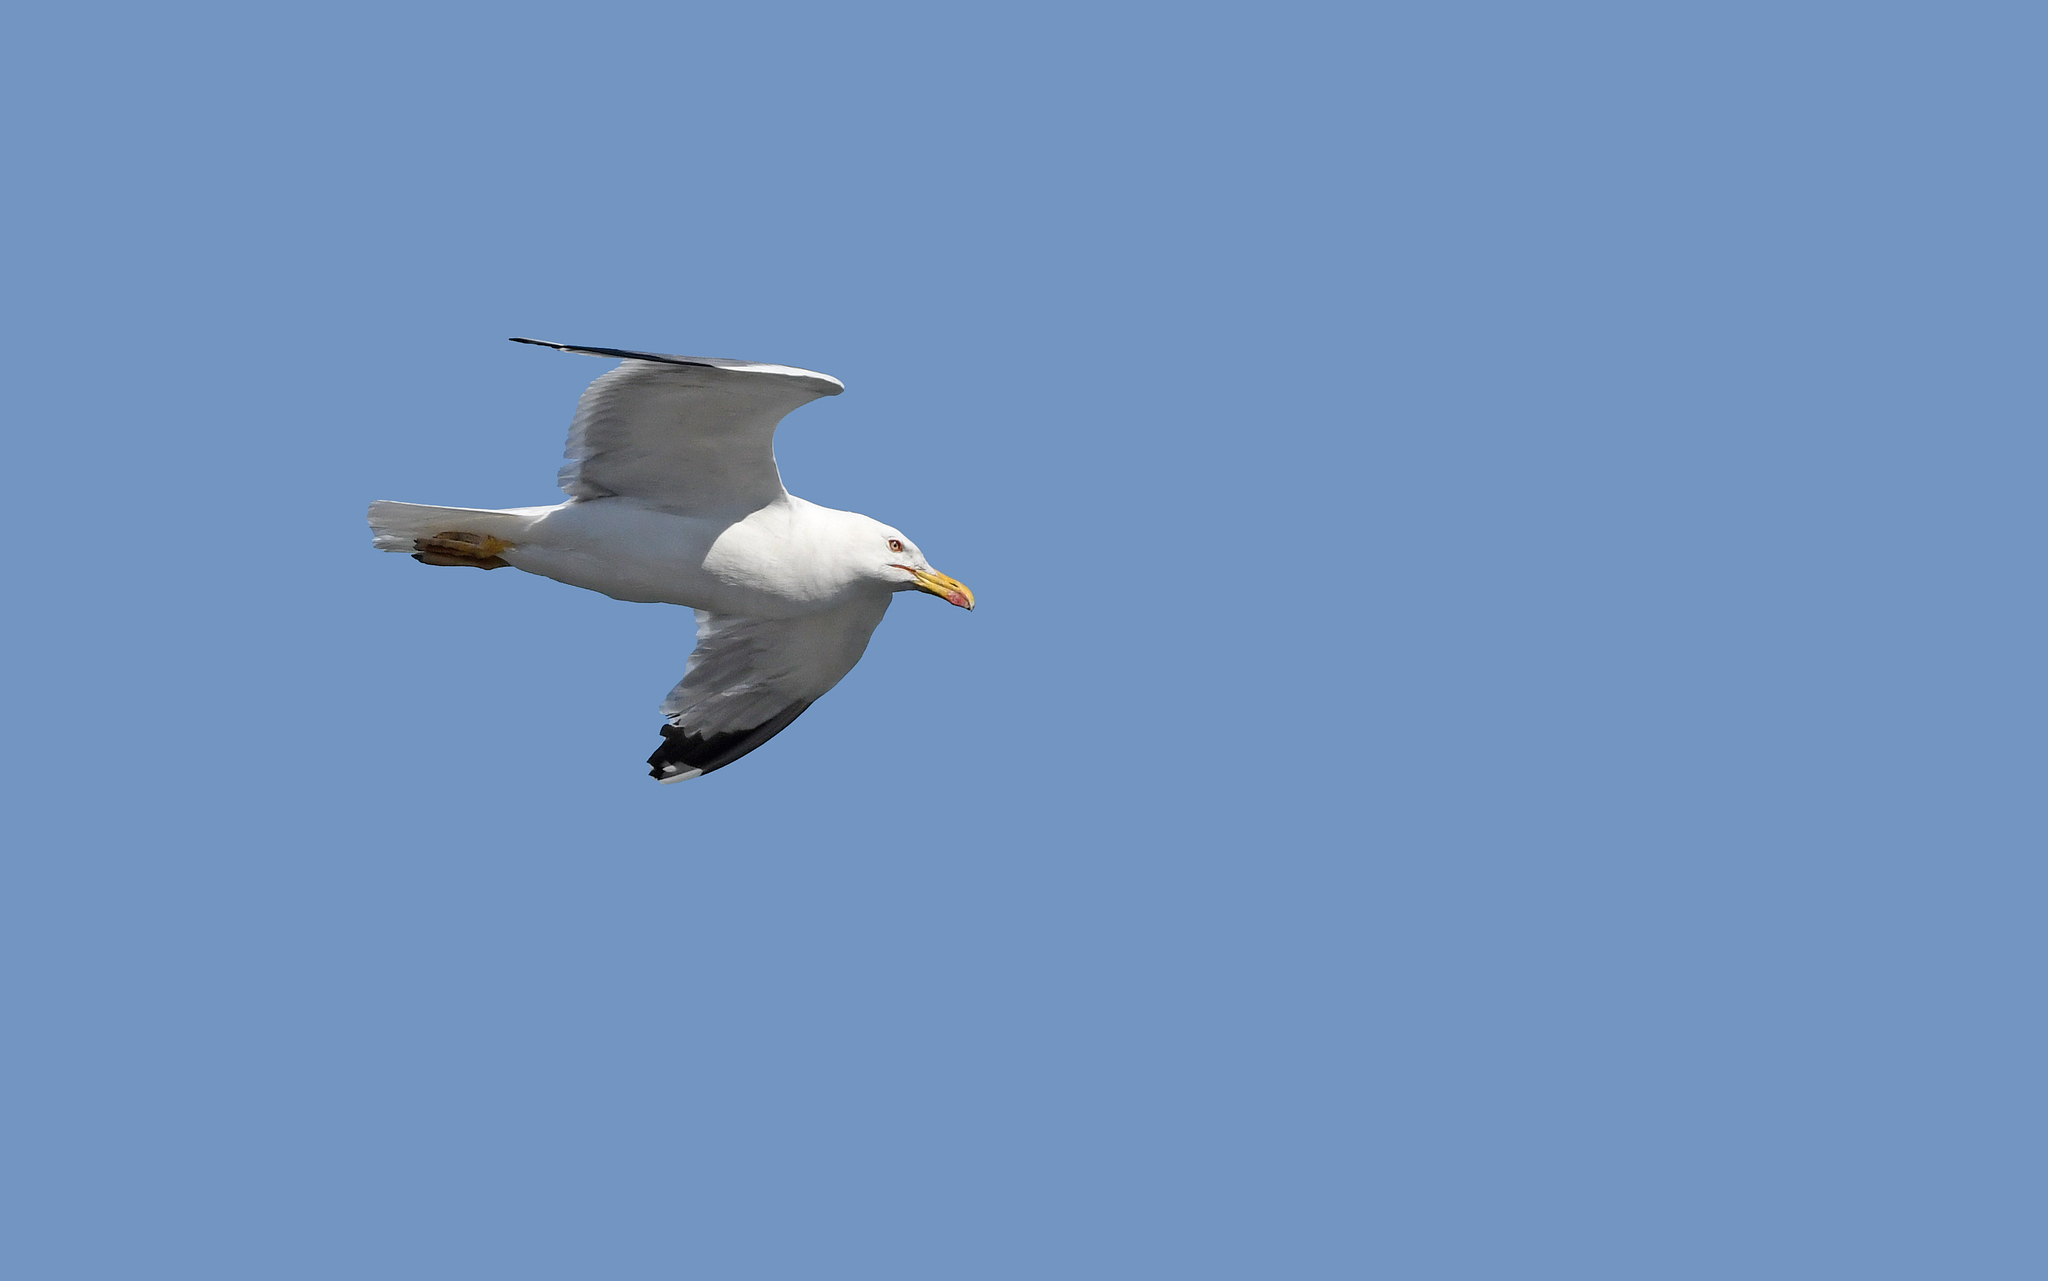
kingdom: Animalia
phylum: Chordata
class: Aves
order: Charadriiformes
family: Laridae
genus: Larus
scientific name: Larus michahellis
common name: Yellow-legged gull
